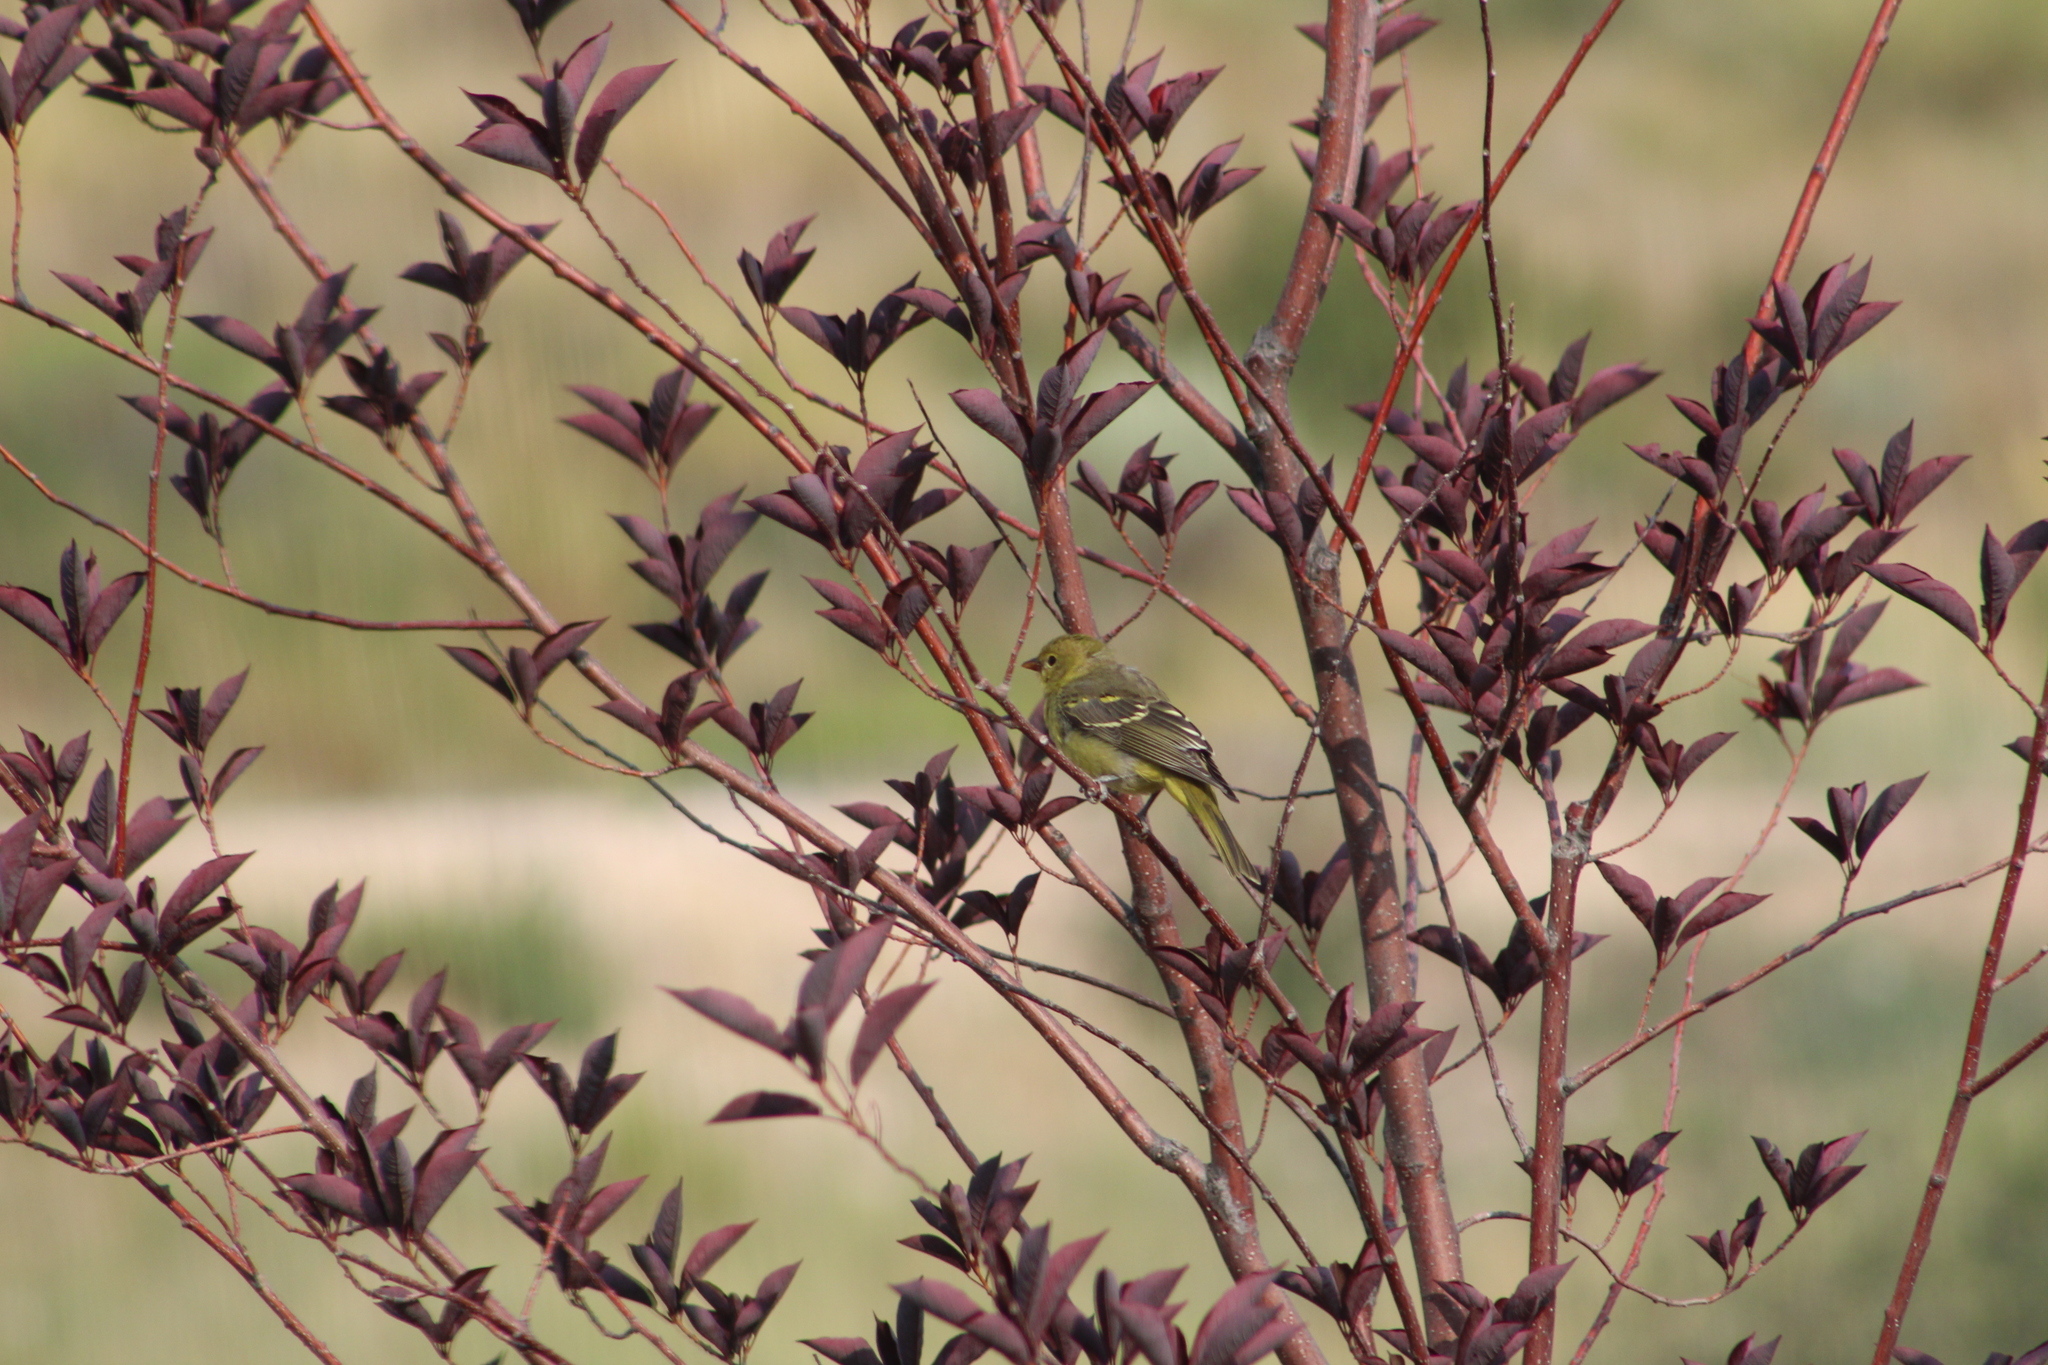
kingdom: Animalia
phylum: Chordata
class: Aves
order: Passeriformes
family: Cardinalidae
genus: Piranga
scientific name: Piranga ludoviciana
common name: Western tanager
